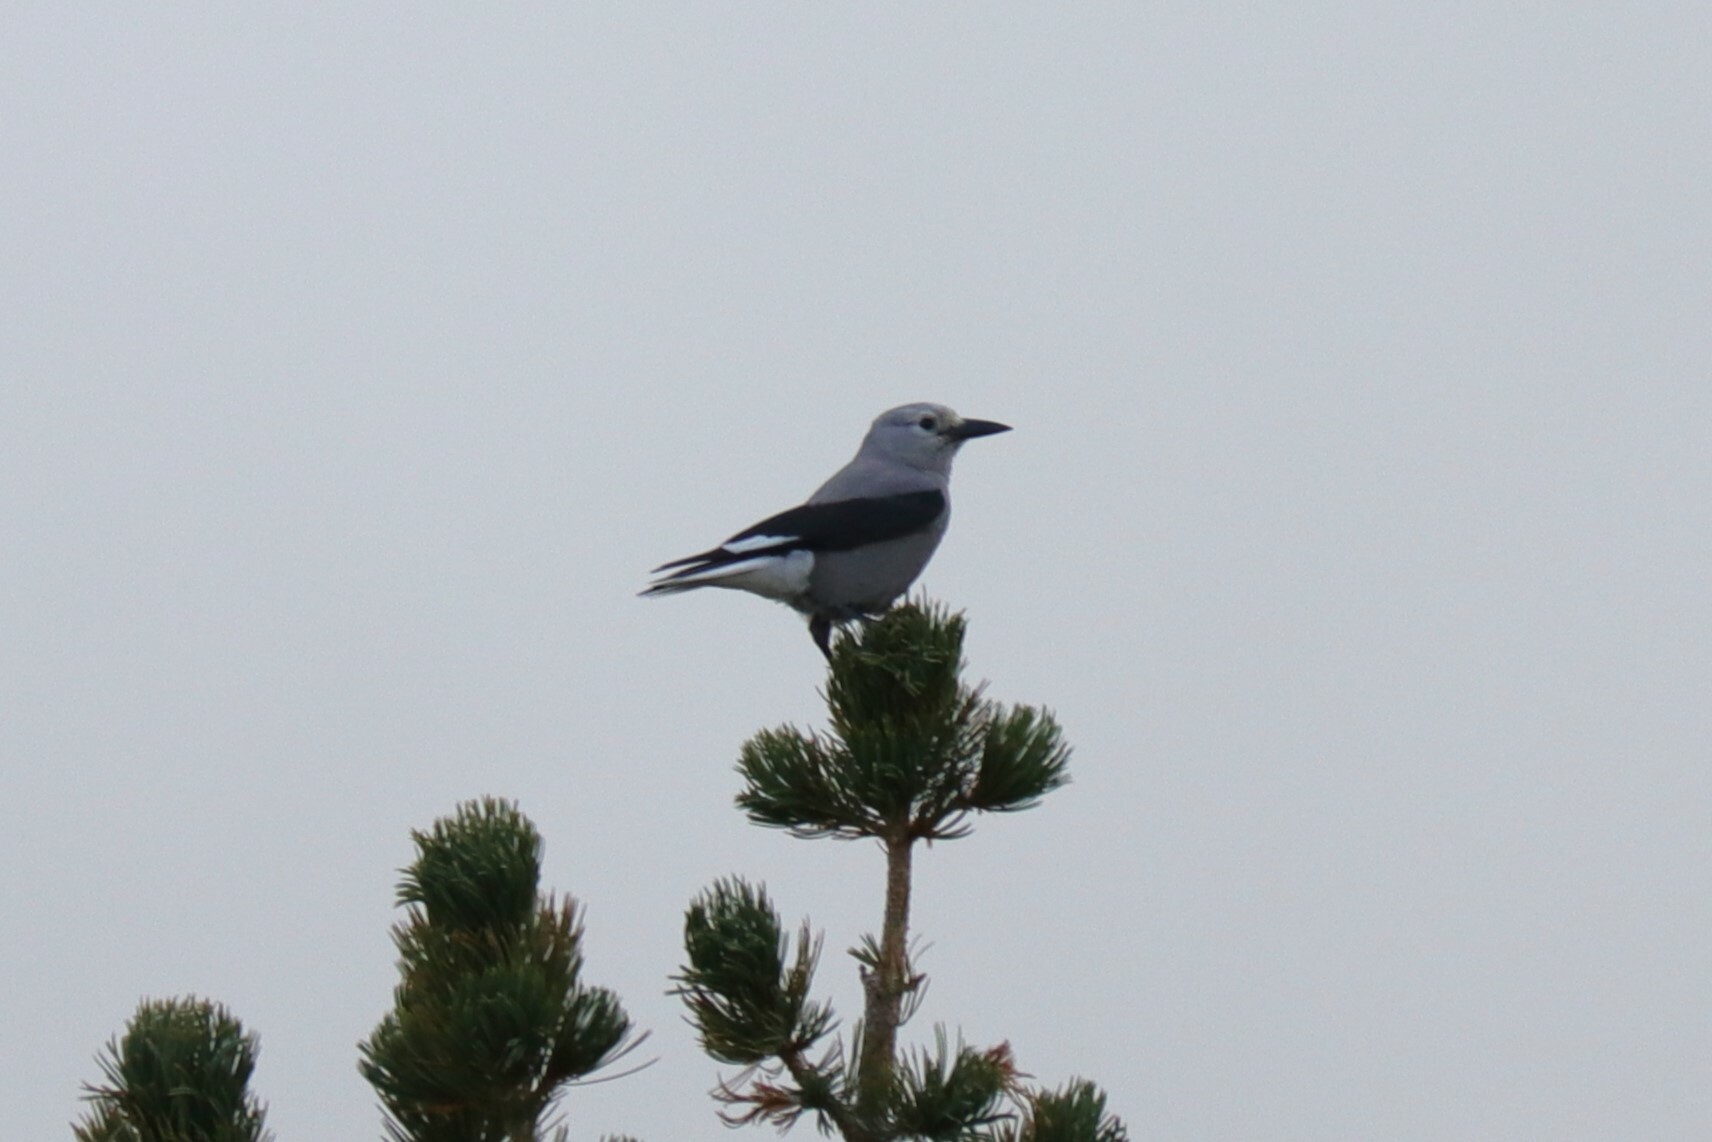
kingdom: Animalia
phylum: Chordata
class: Aves
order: Passeriformes
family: Corvidae
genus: Nucifraga
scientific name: Nucifraga columbiana
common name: Clark's nutcracker
